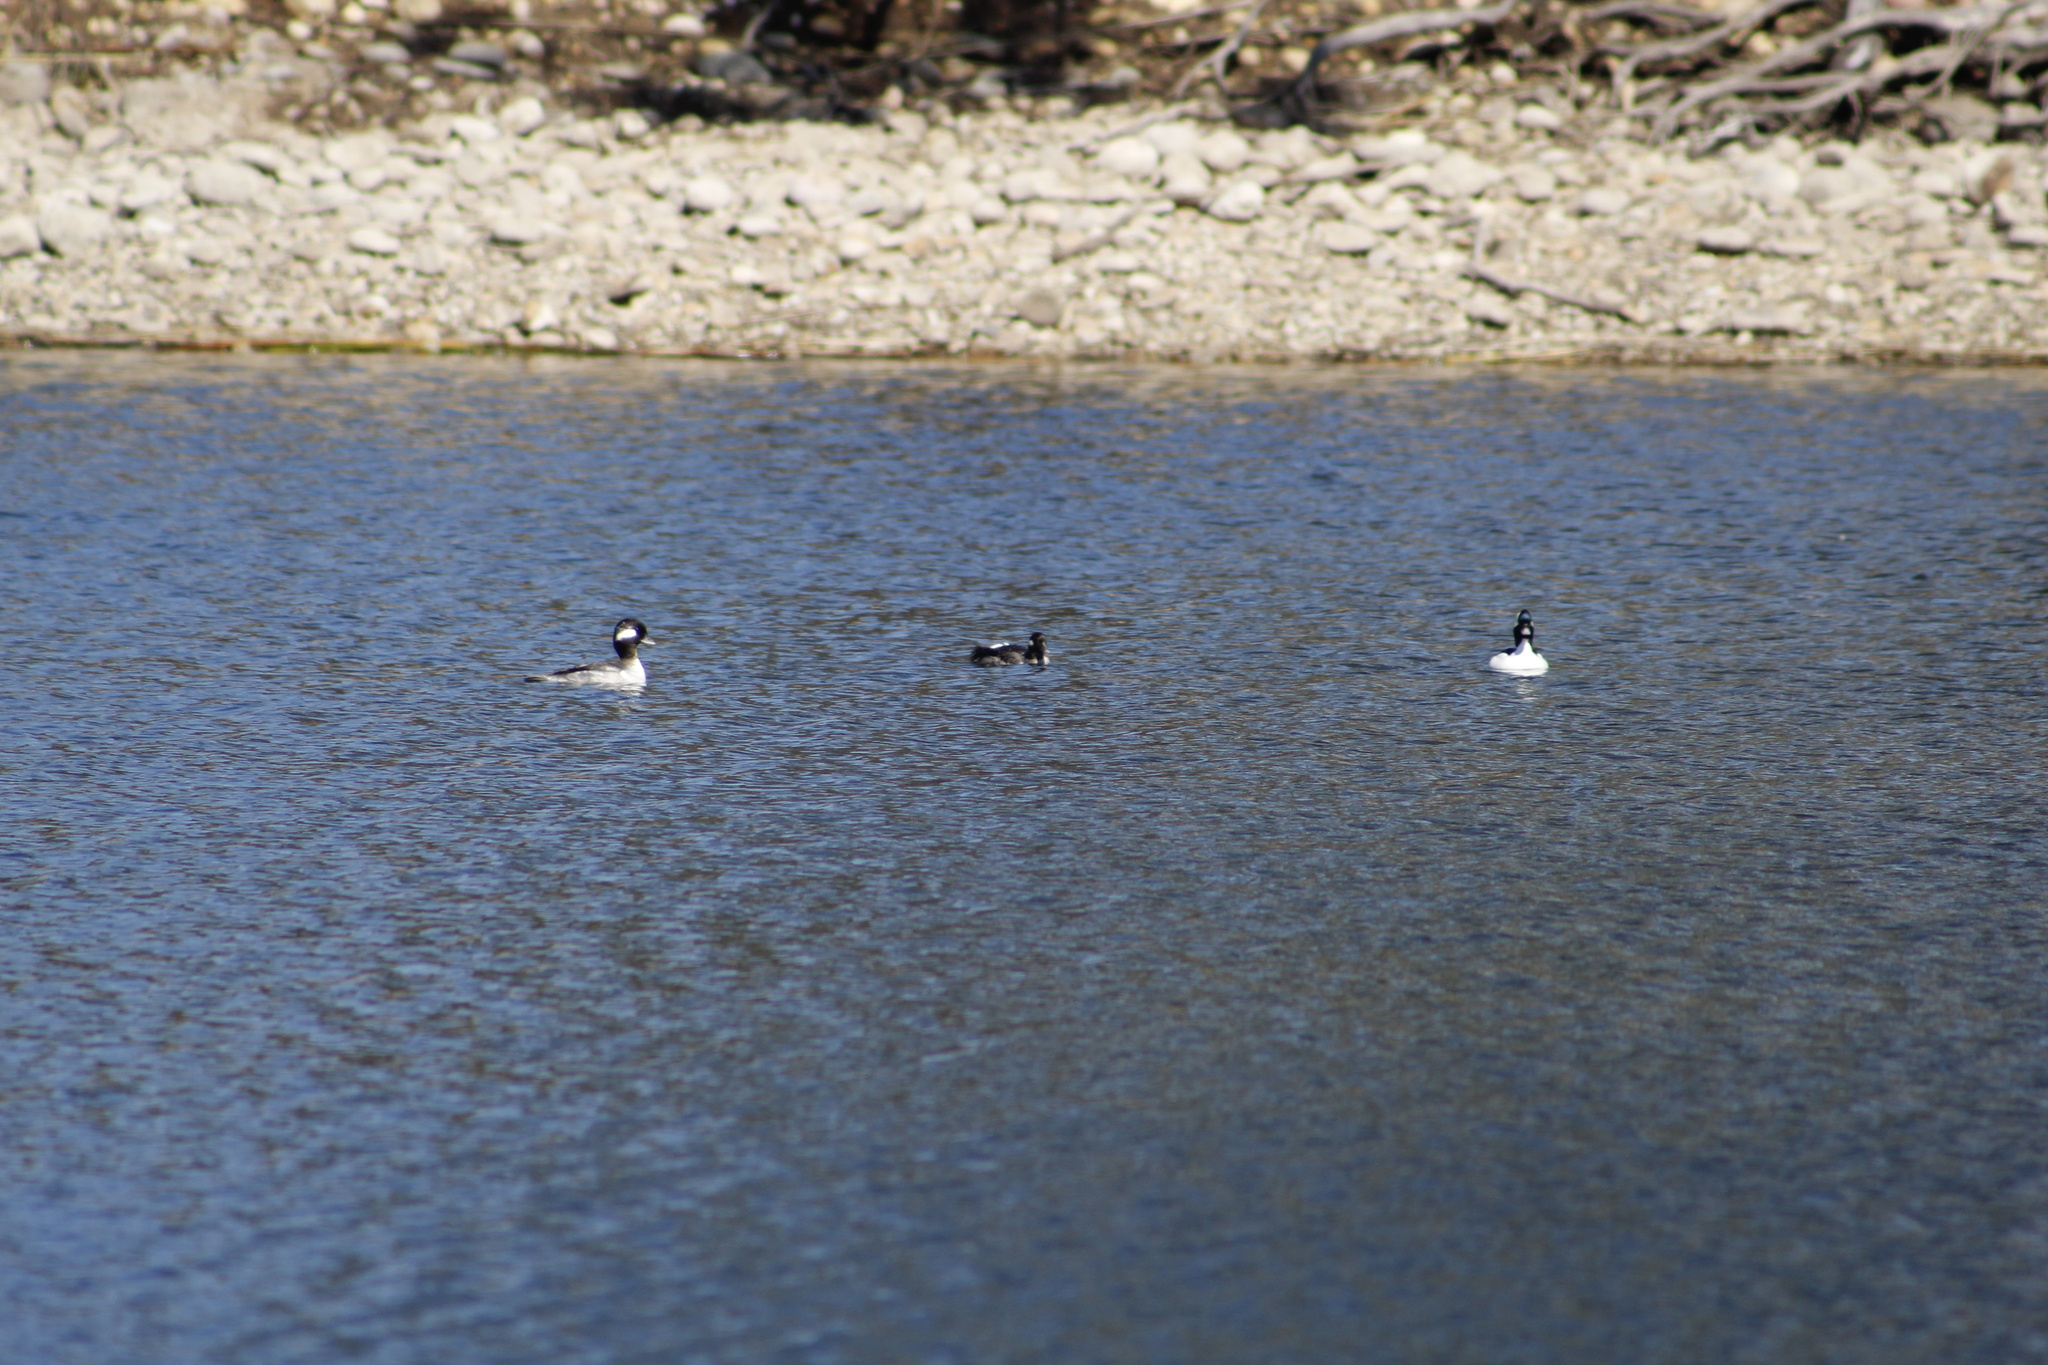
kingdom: Animalia
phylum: Chordata
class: Aves
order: Anseriformes
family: Anatidae
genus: Bucephala
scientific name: Bucephala albeola
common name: Bufflehead
